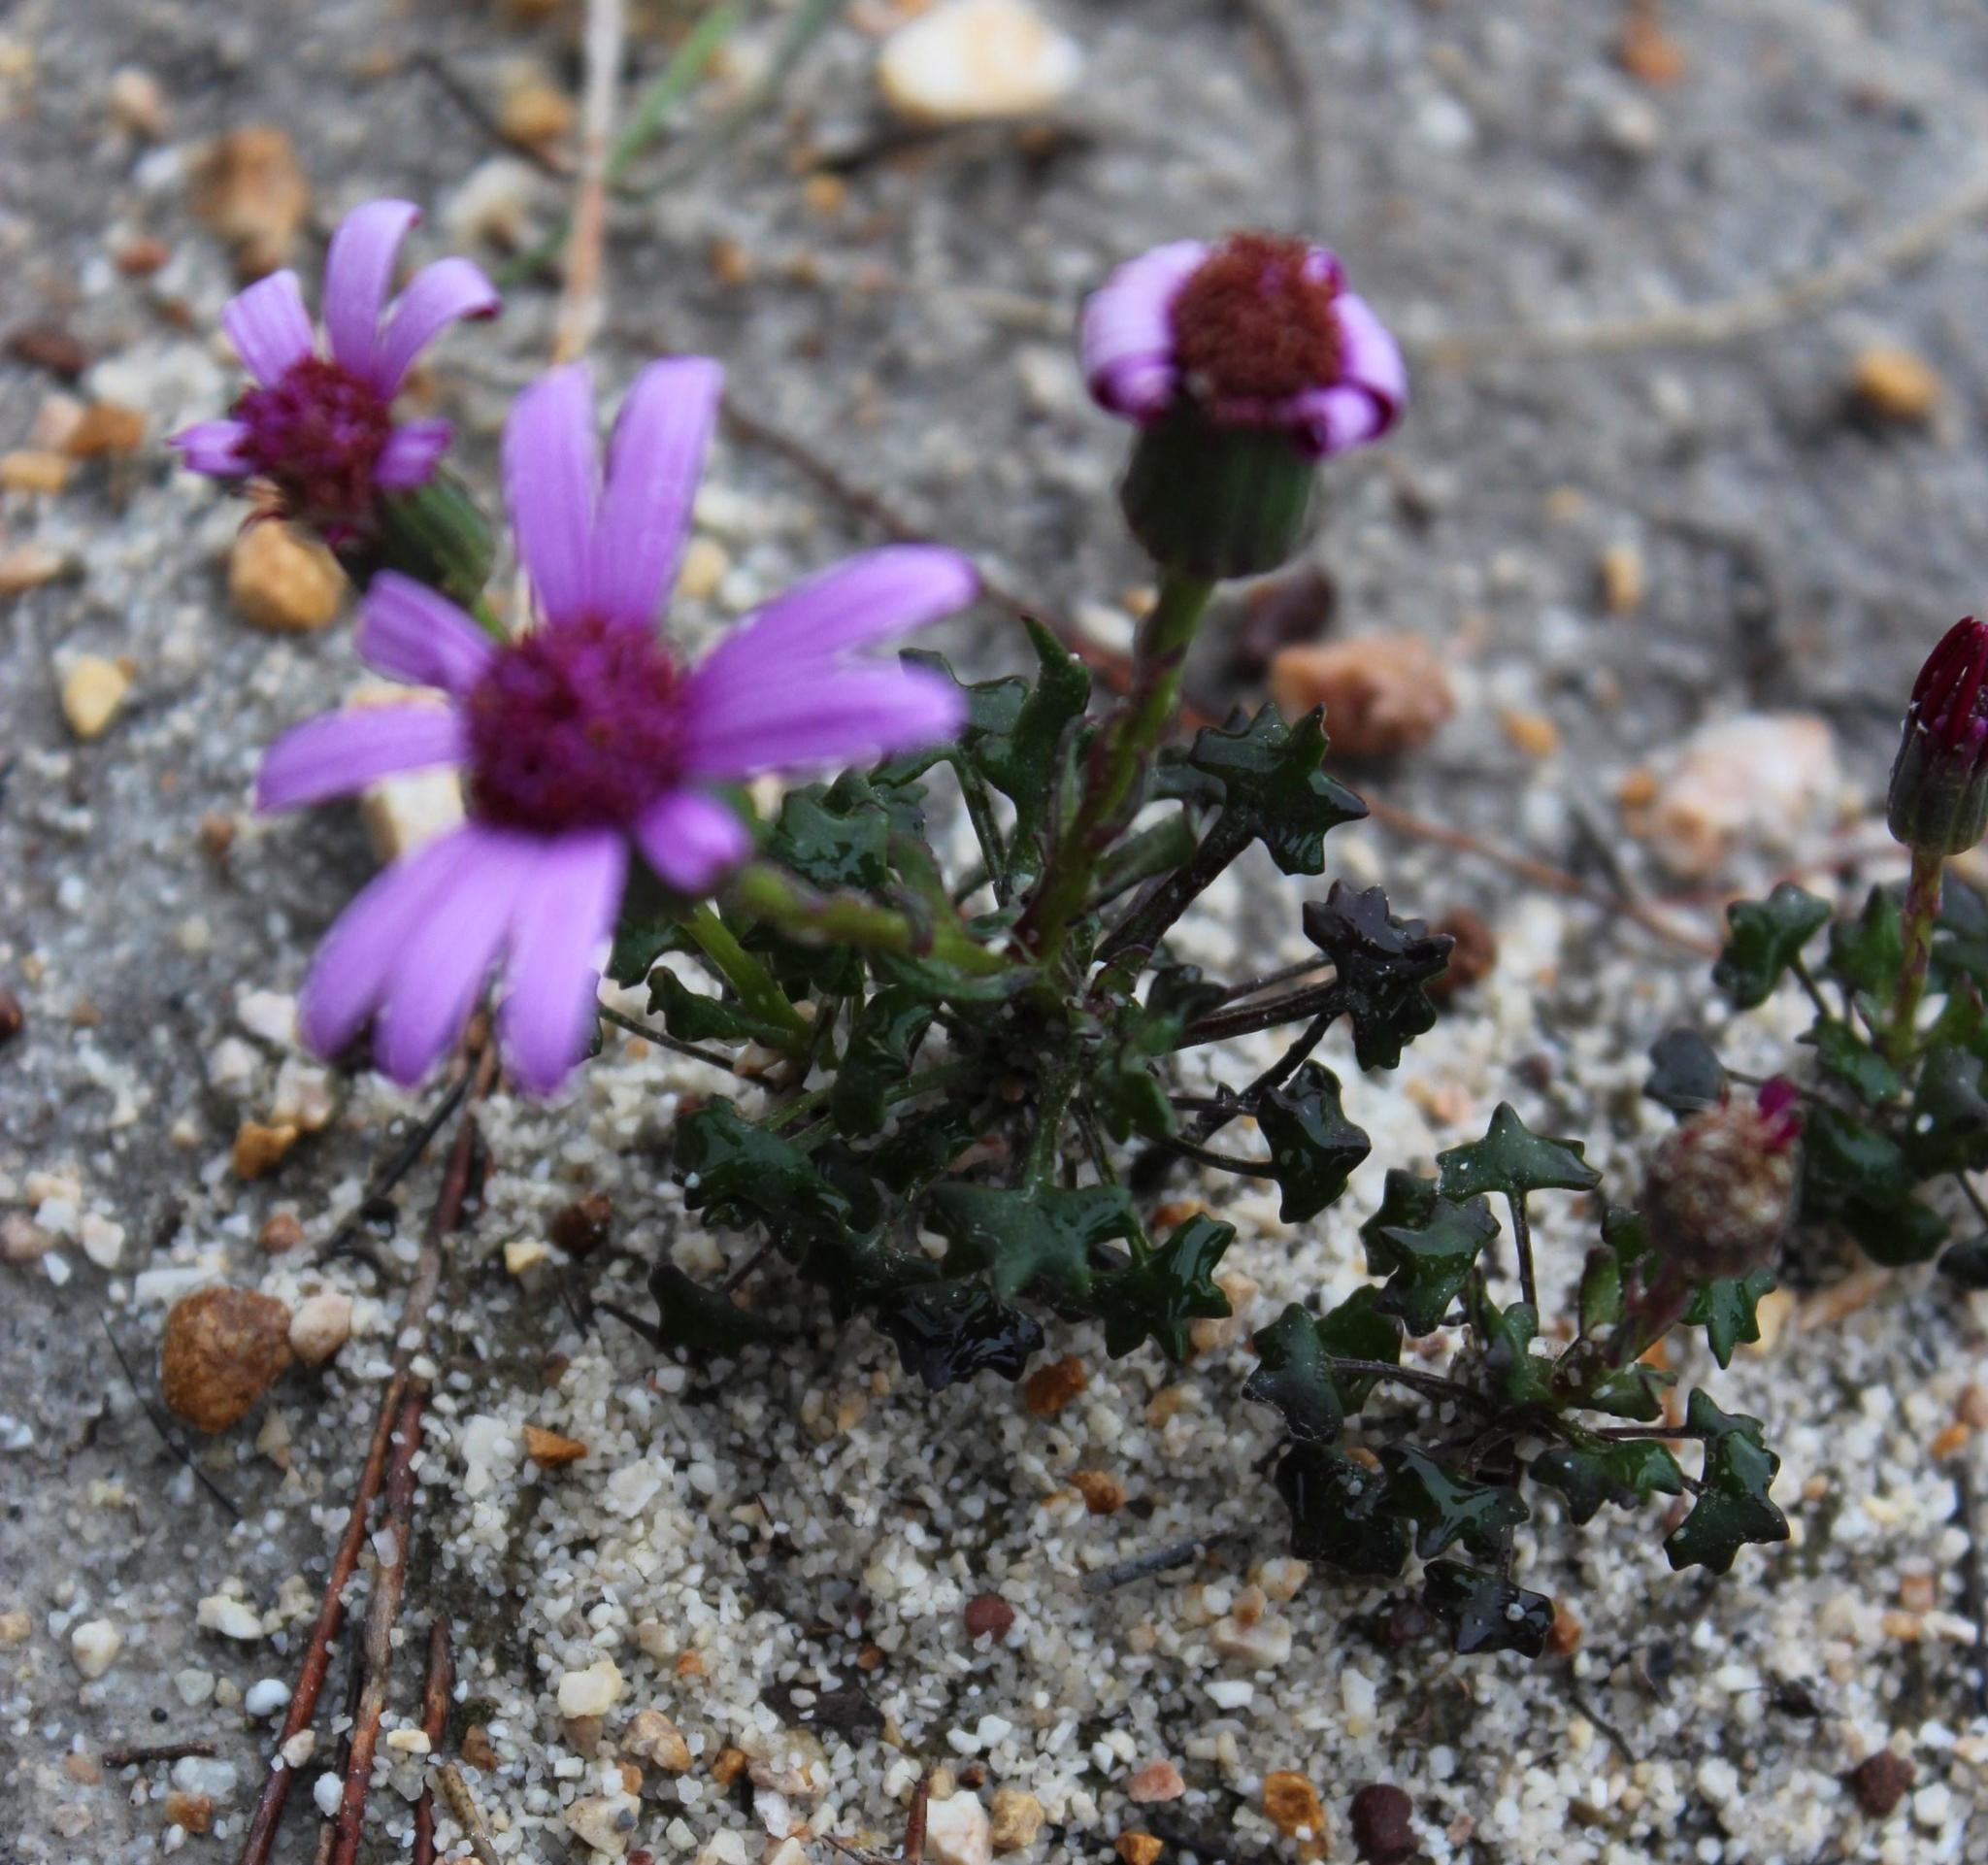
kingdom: Plantae
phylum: Tracheophyta
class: Magnoliopsida
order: Asterales
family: Asteraceae
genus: Senecio
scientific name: Senecio hastifolius
